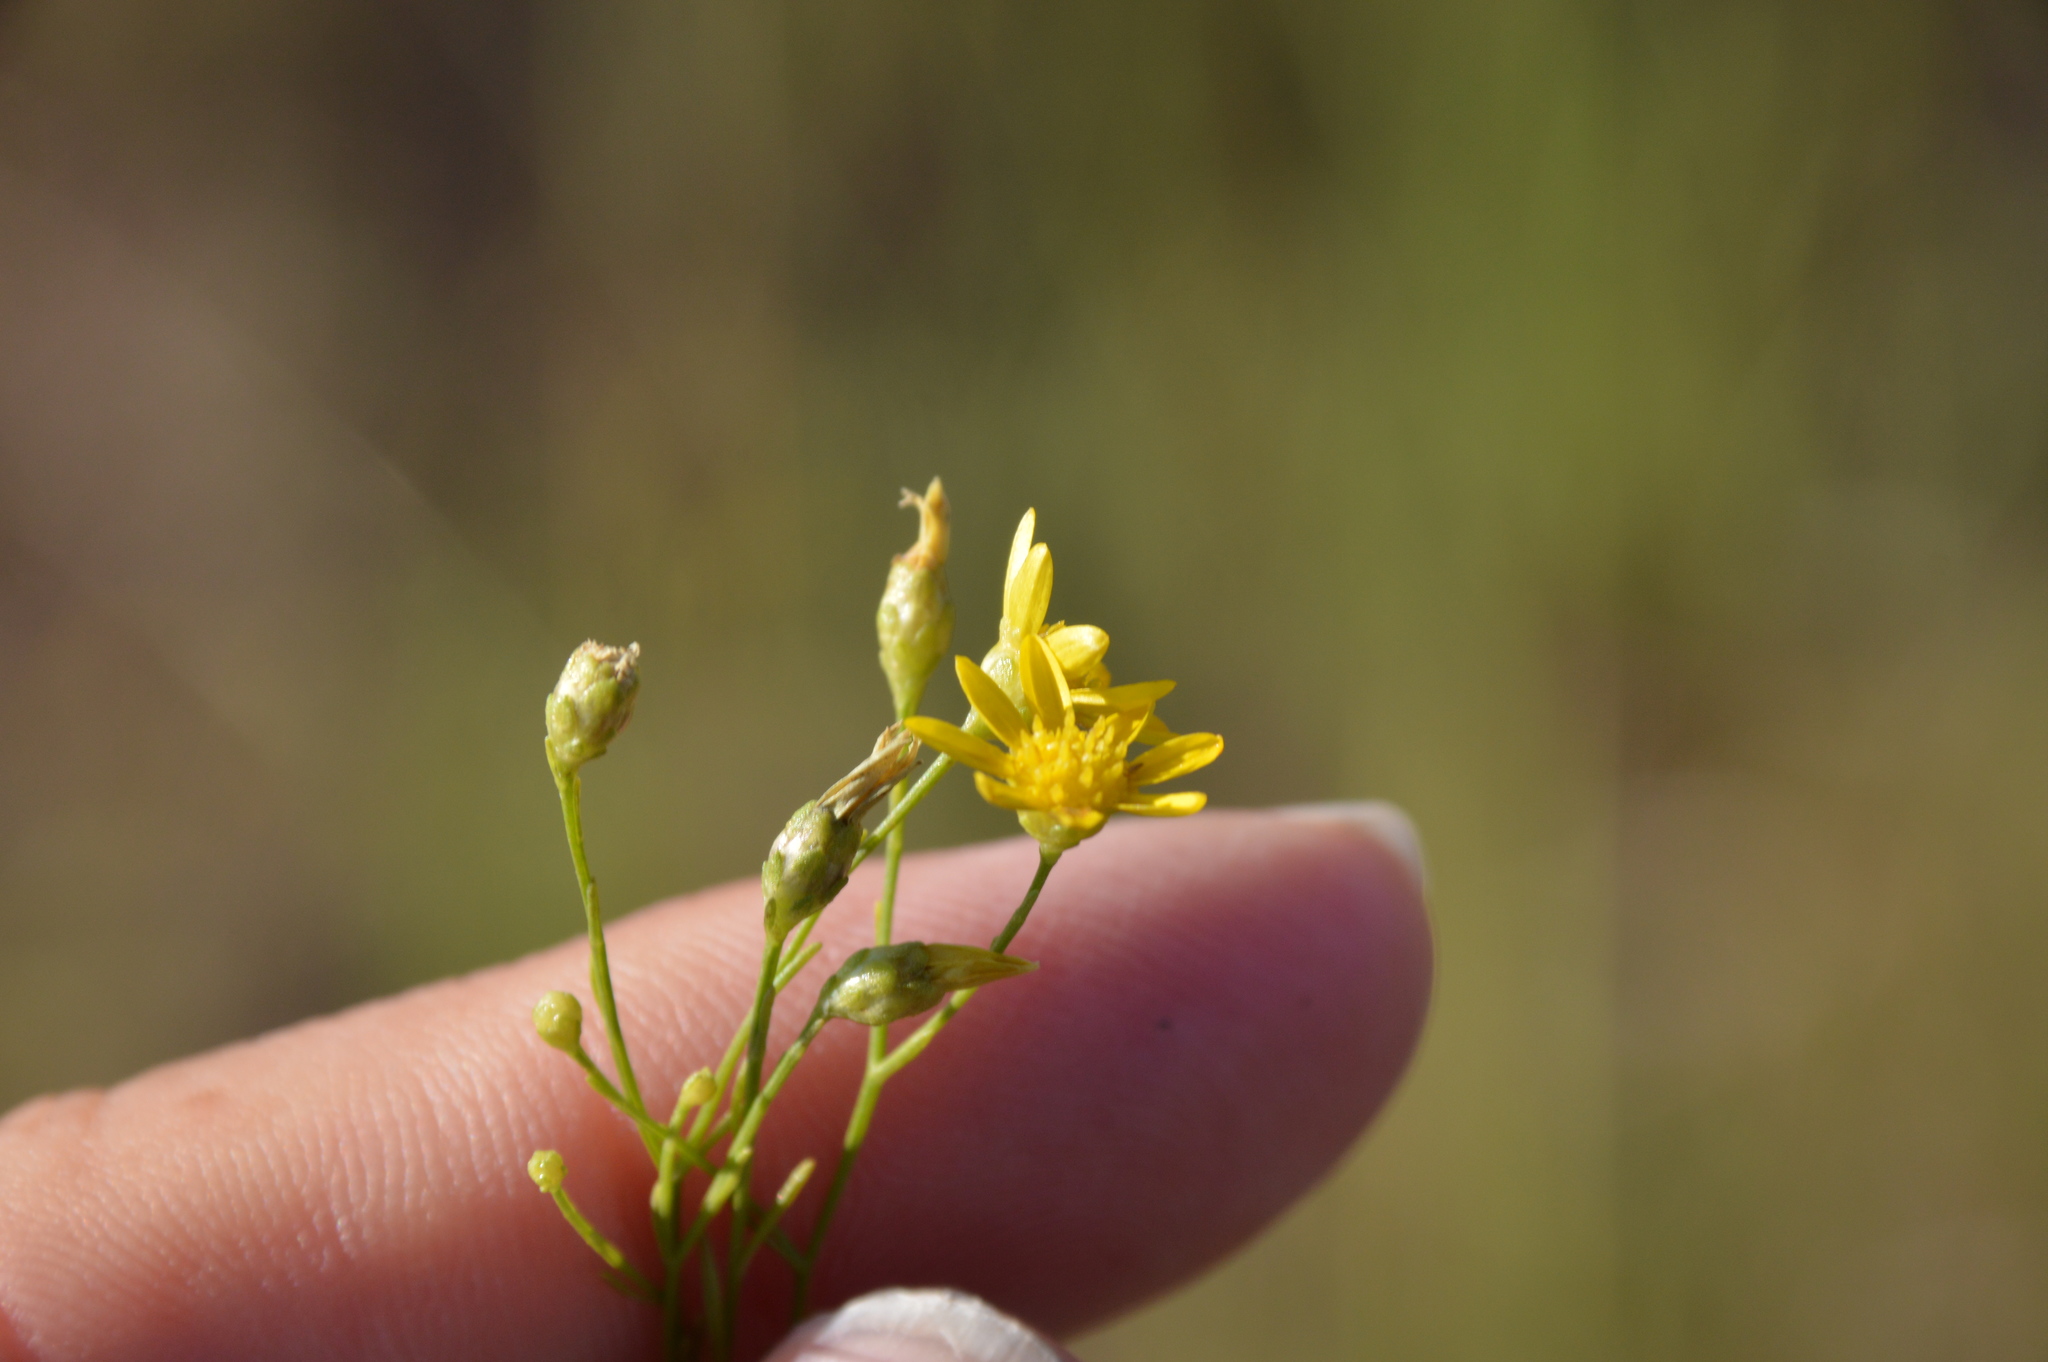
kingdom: Plantae
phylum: Tracheophyta
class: Magnoliopsida
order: Asterales
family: Asteraceae
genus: Amphiachyris
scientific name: Amphiachyris dracunculoides
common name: Broomweed
